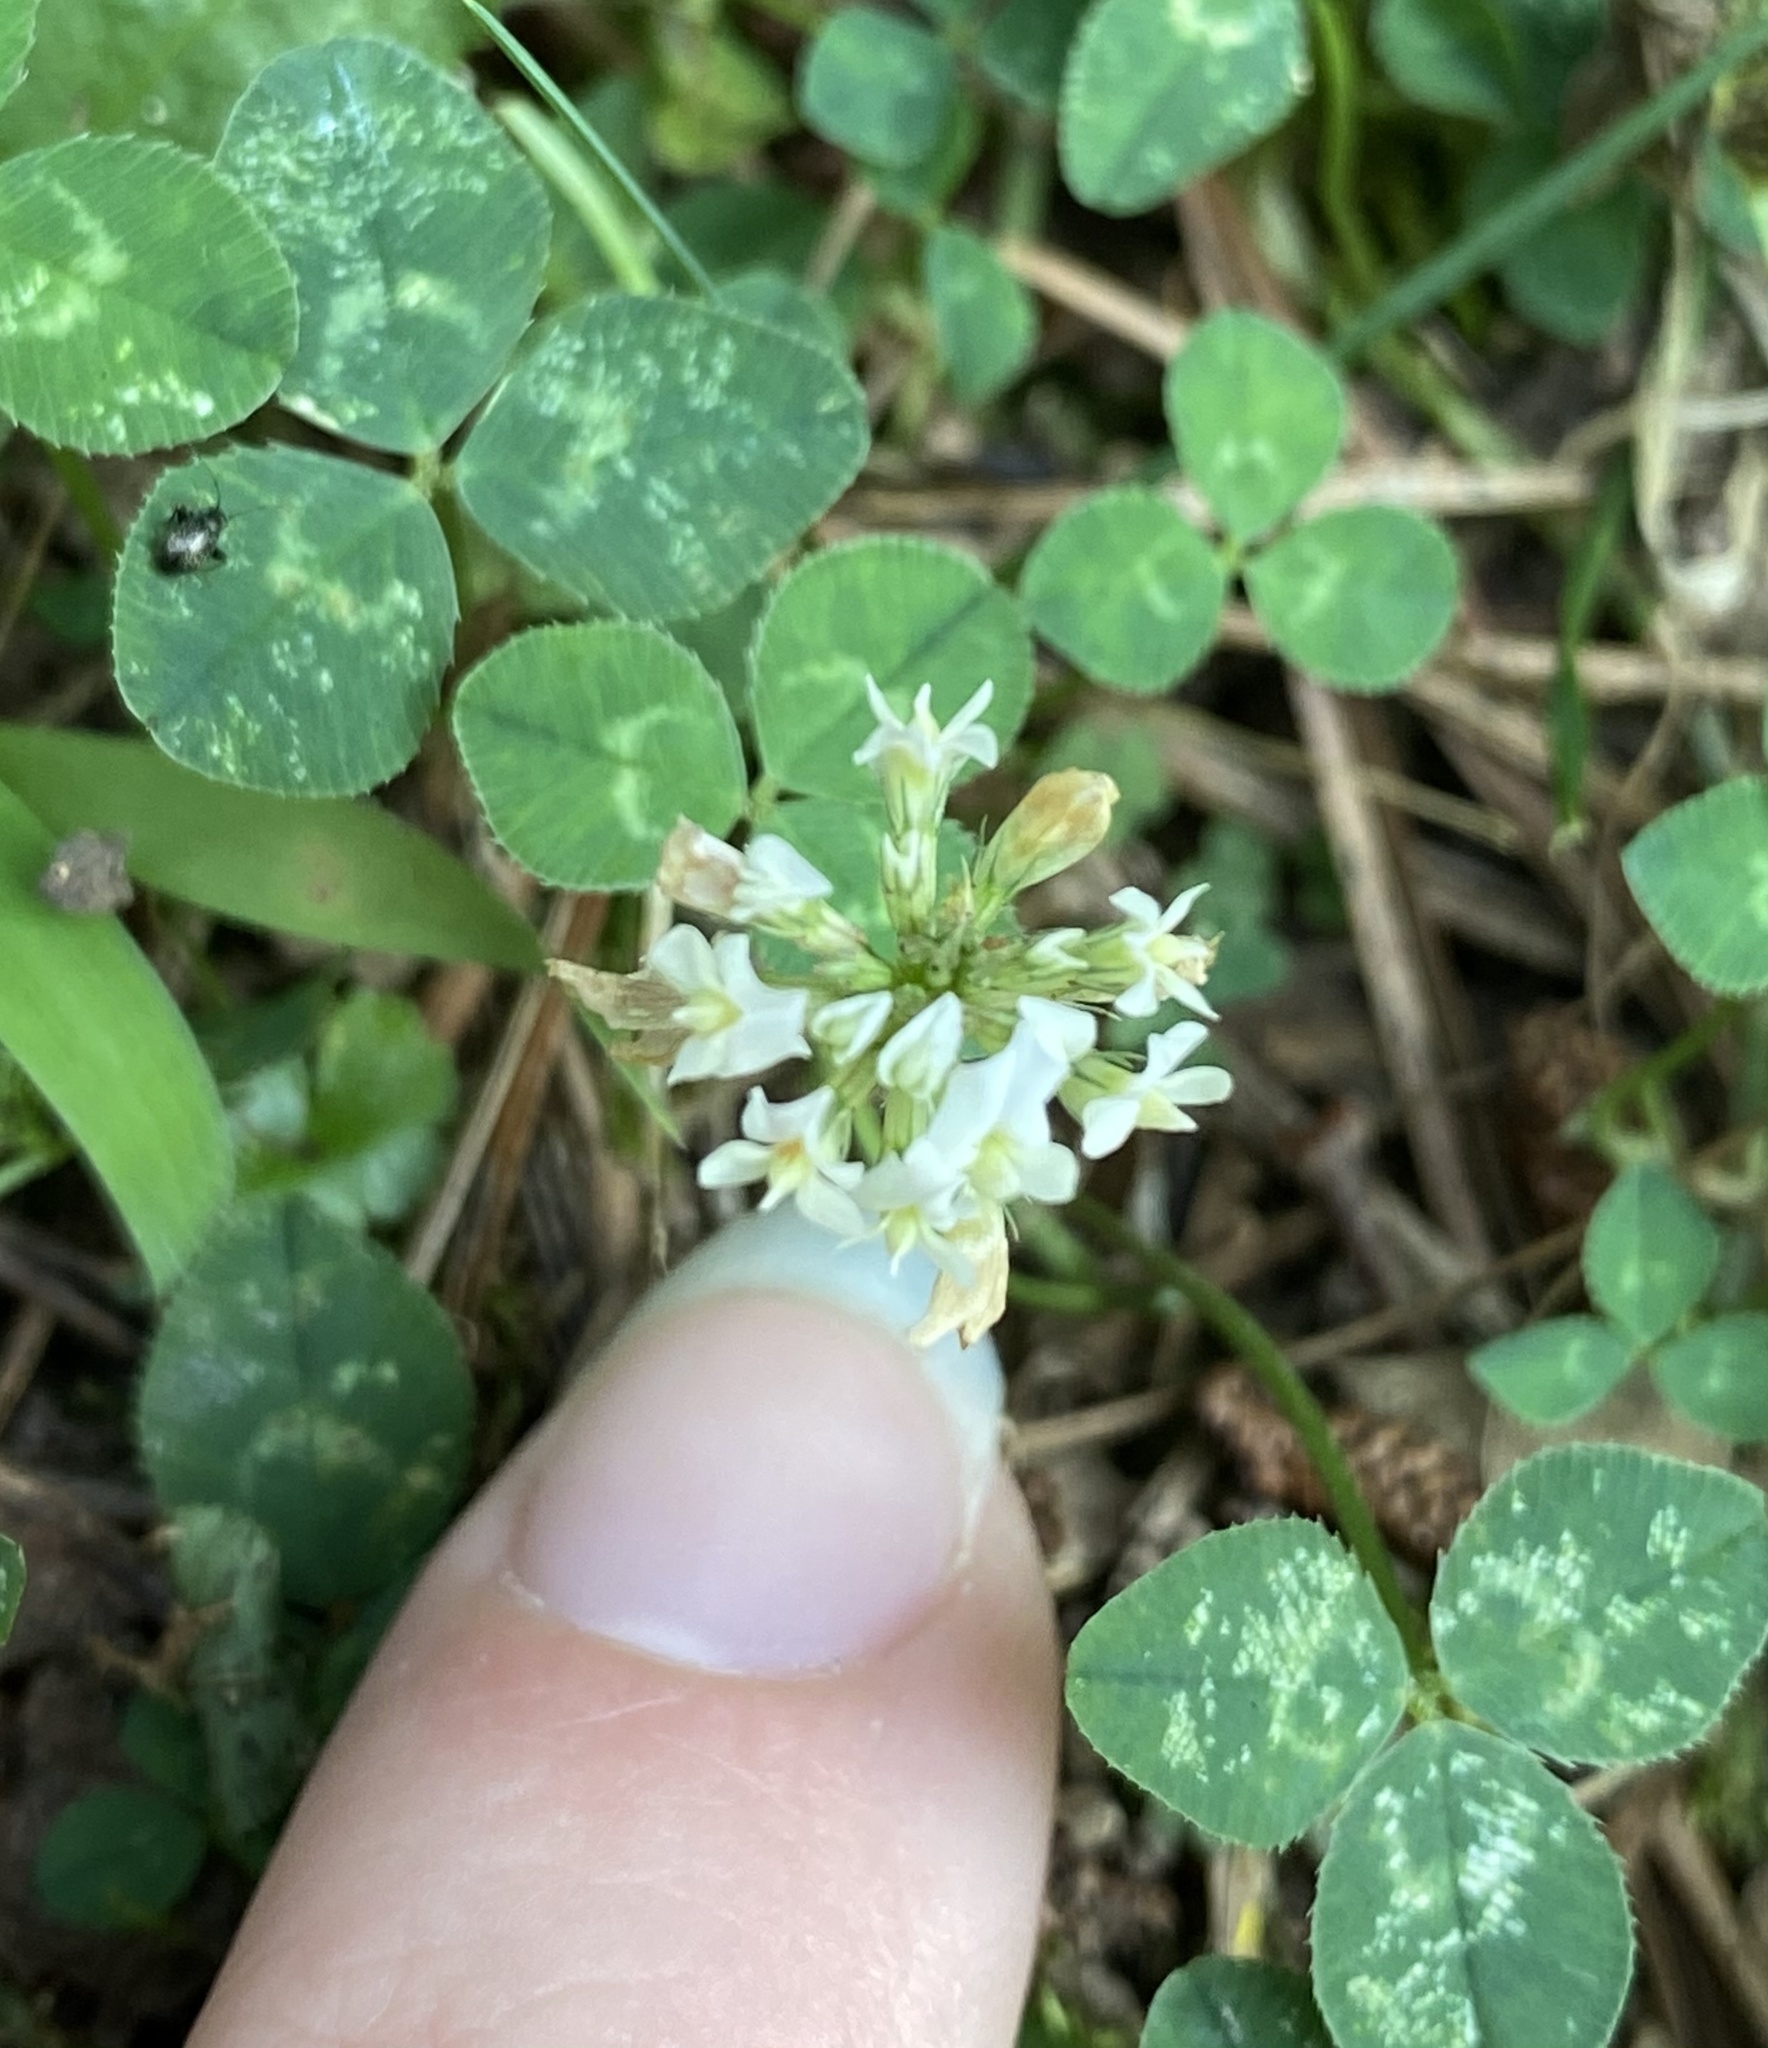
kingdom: Plantae
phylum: Tracheophyta
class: Magnoliopsida
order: Fabales
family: Fabaceae
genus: Trifolium
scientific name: Trifolium repens
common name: White clover
